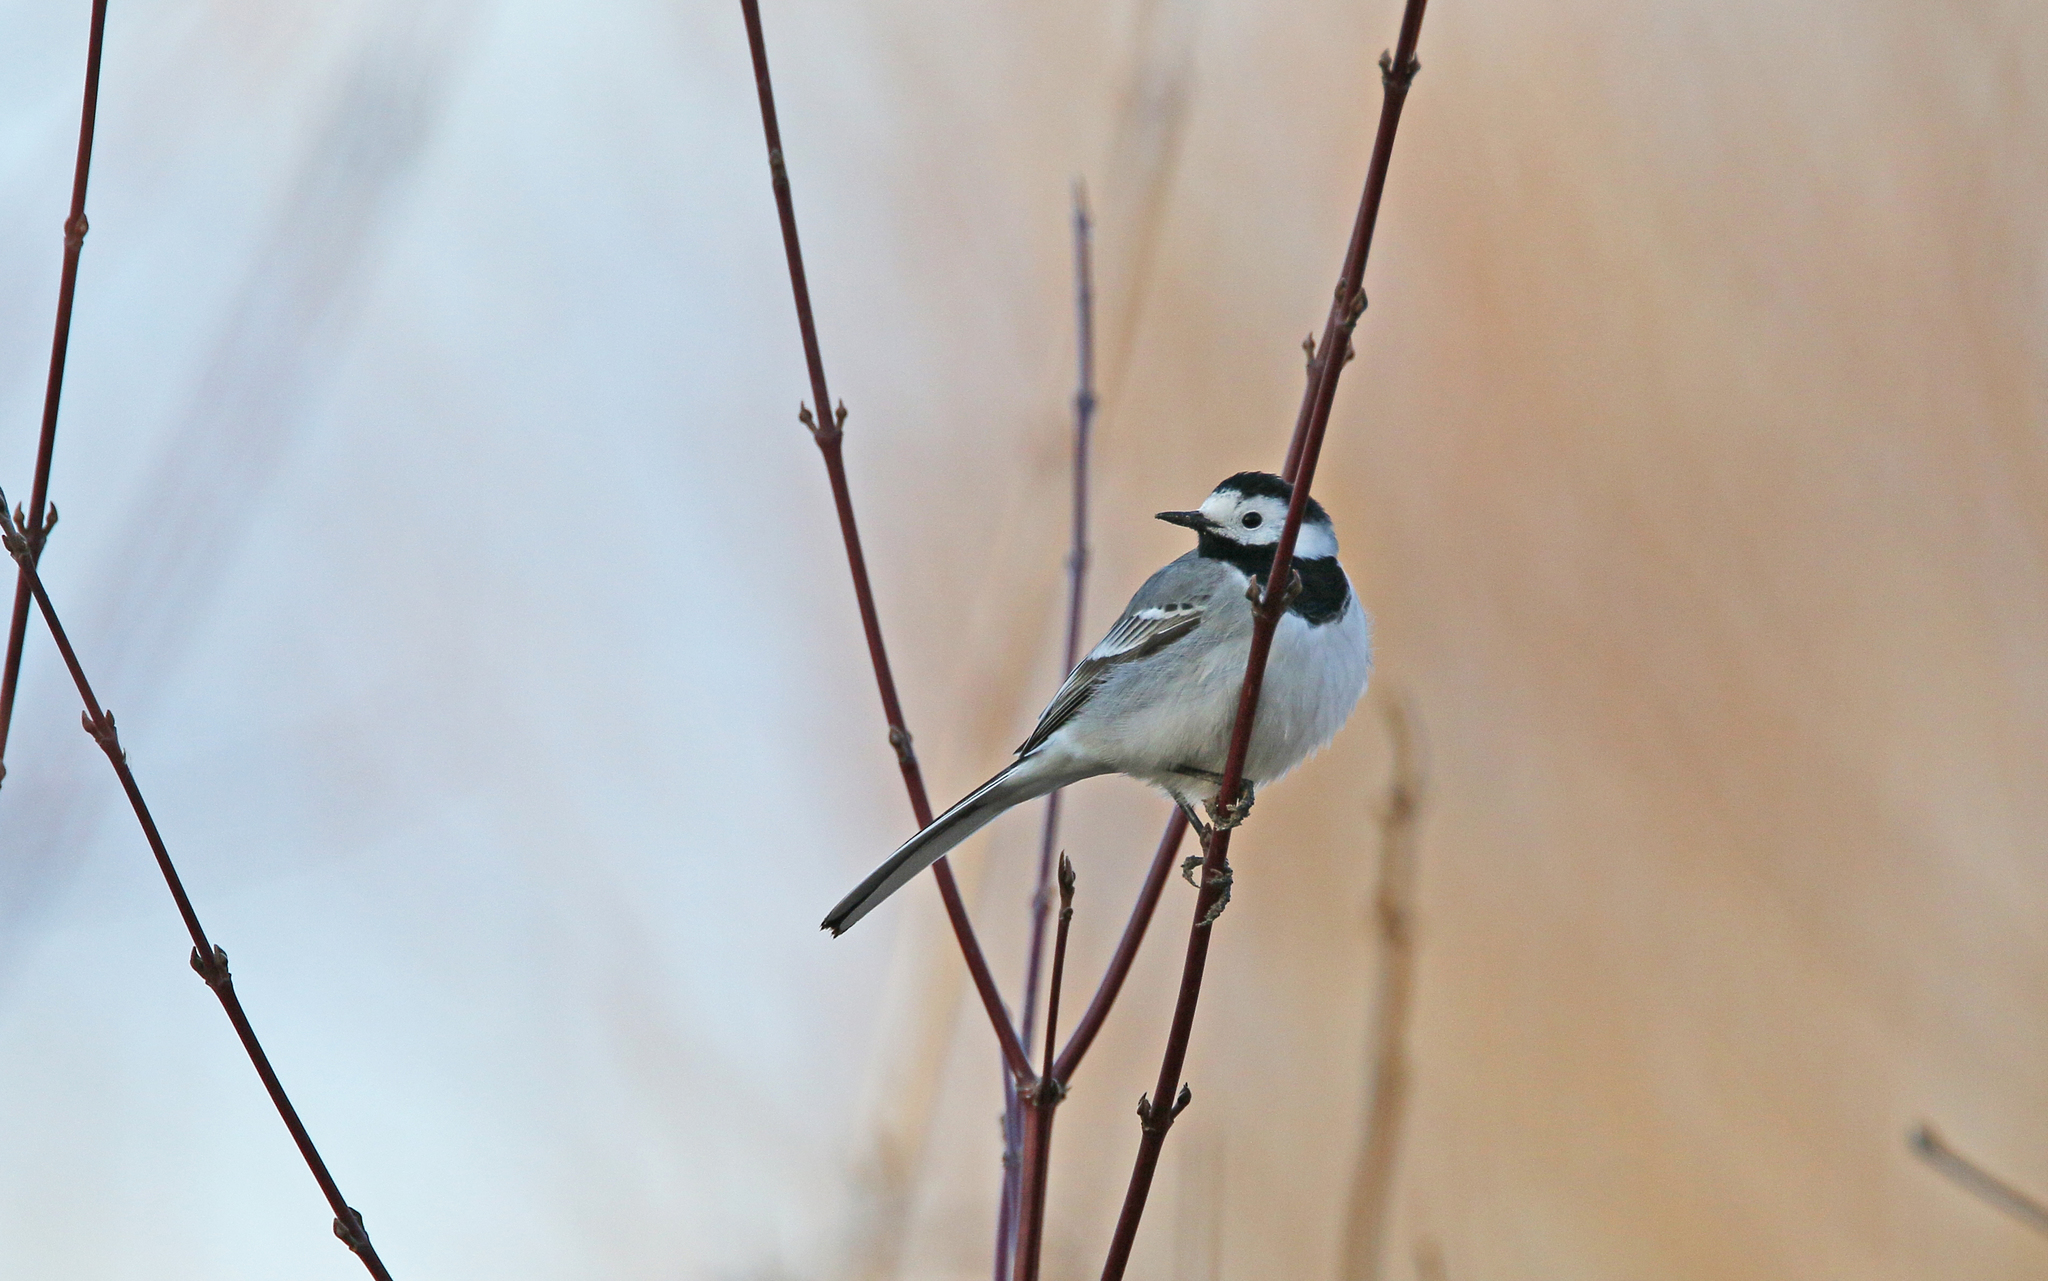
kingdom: Animalia
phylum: Chordata
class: Aves
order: Passeriformes
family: Motacillidae
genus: Motacilla
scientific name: Motacilla alba
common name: White wagtail
